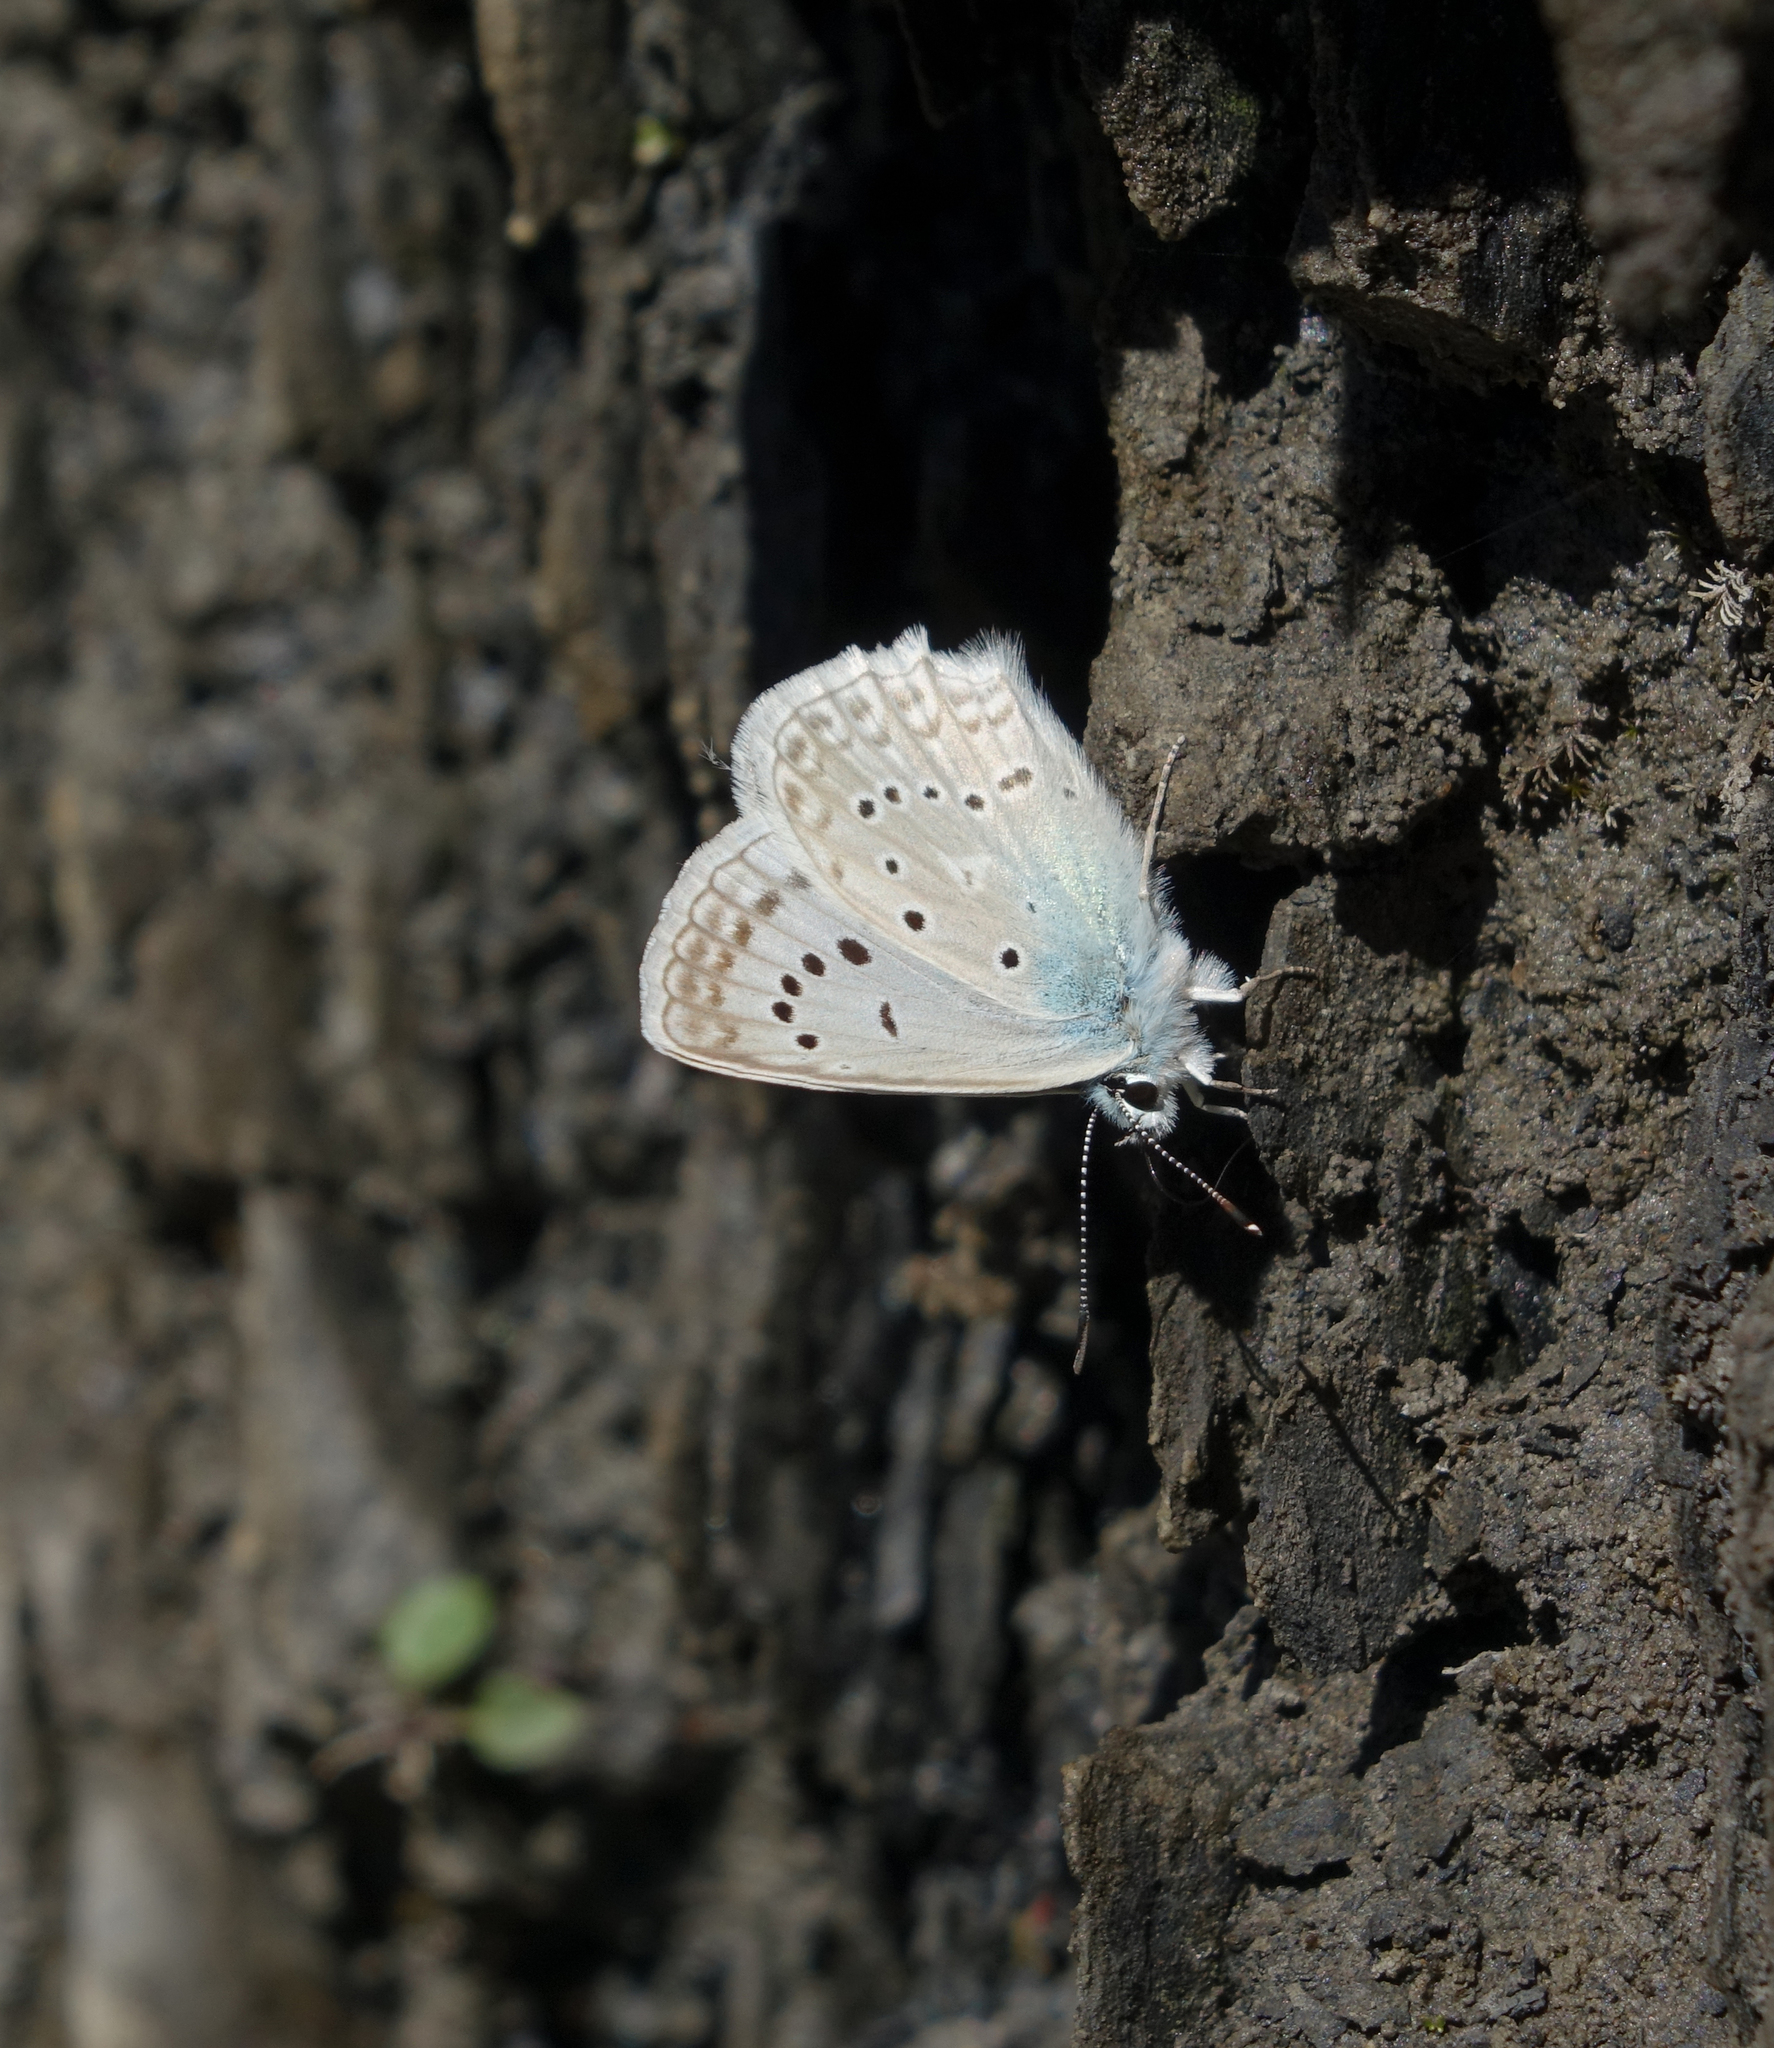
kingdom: Animalia
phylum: Arthropoda
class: Insecta
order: Lepidoptera
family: Lycaenidae
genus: Polyommatus
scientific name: Polyommatus daphnis
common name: Meleager's blue
